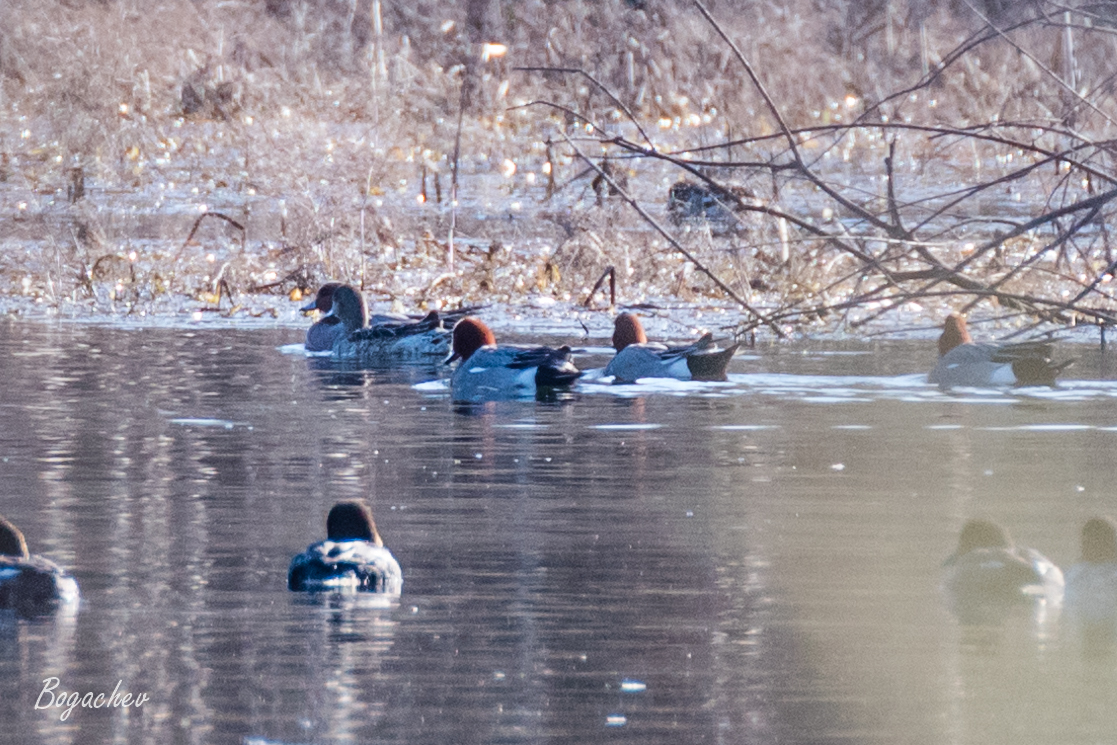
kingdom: Animalia
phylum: Chordata
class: Aves
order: Anseriformes
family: Anatidae
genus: Mareca
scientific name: Mareca penelope
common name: Eurasian wigeon
